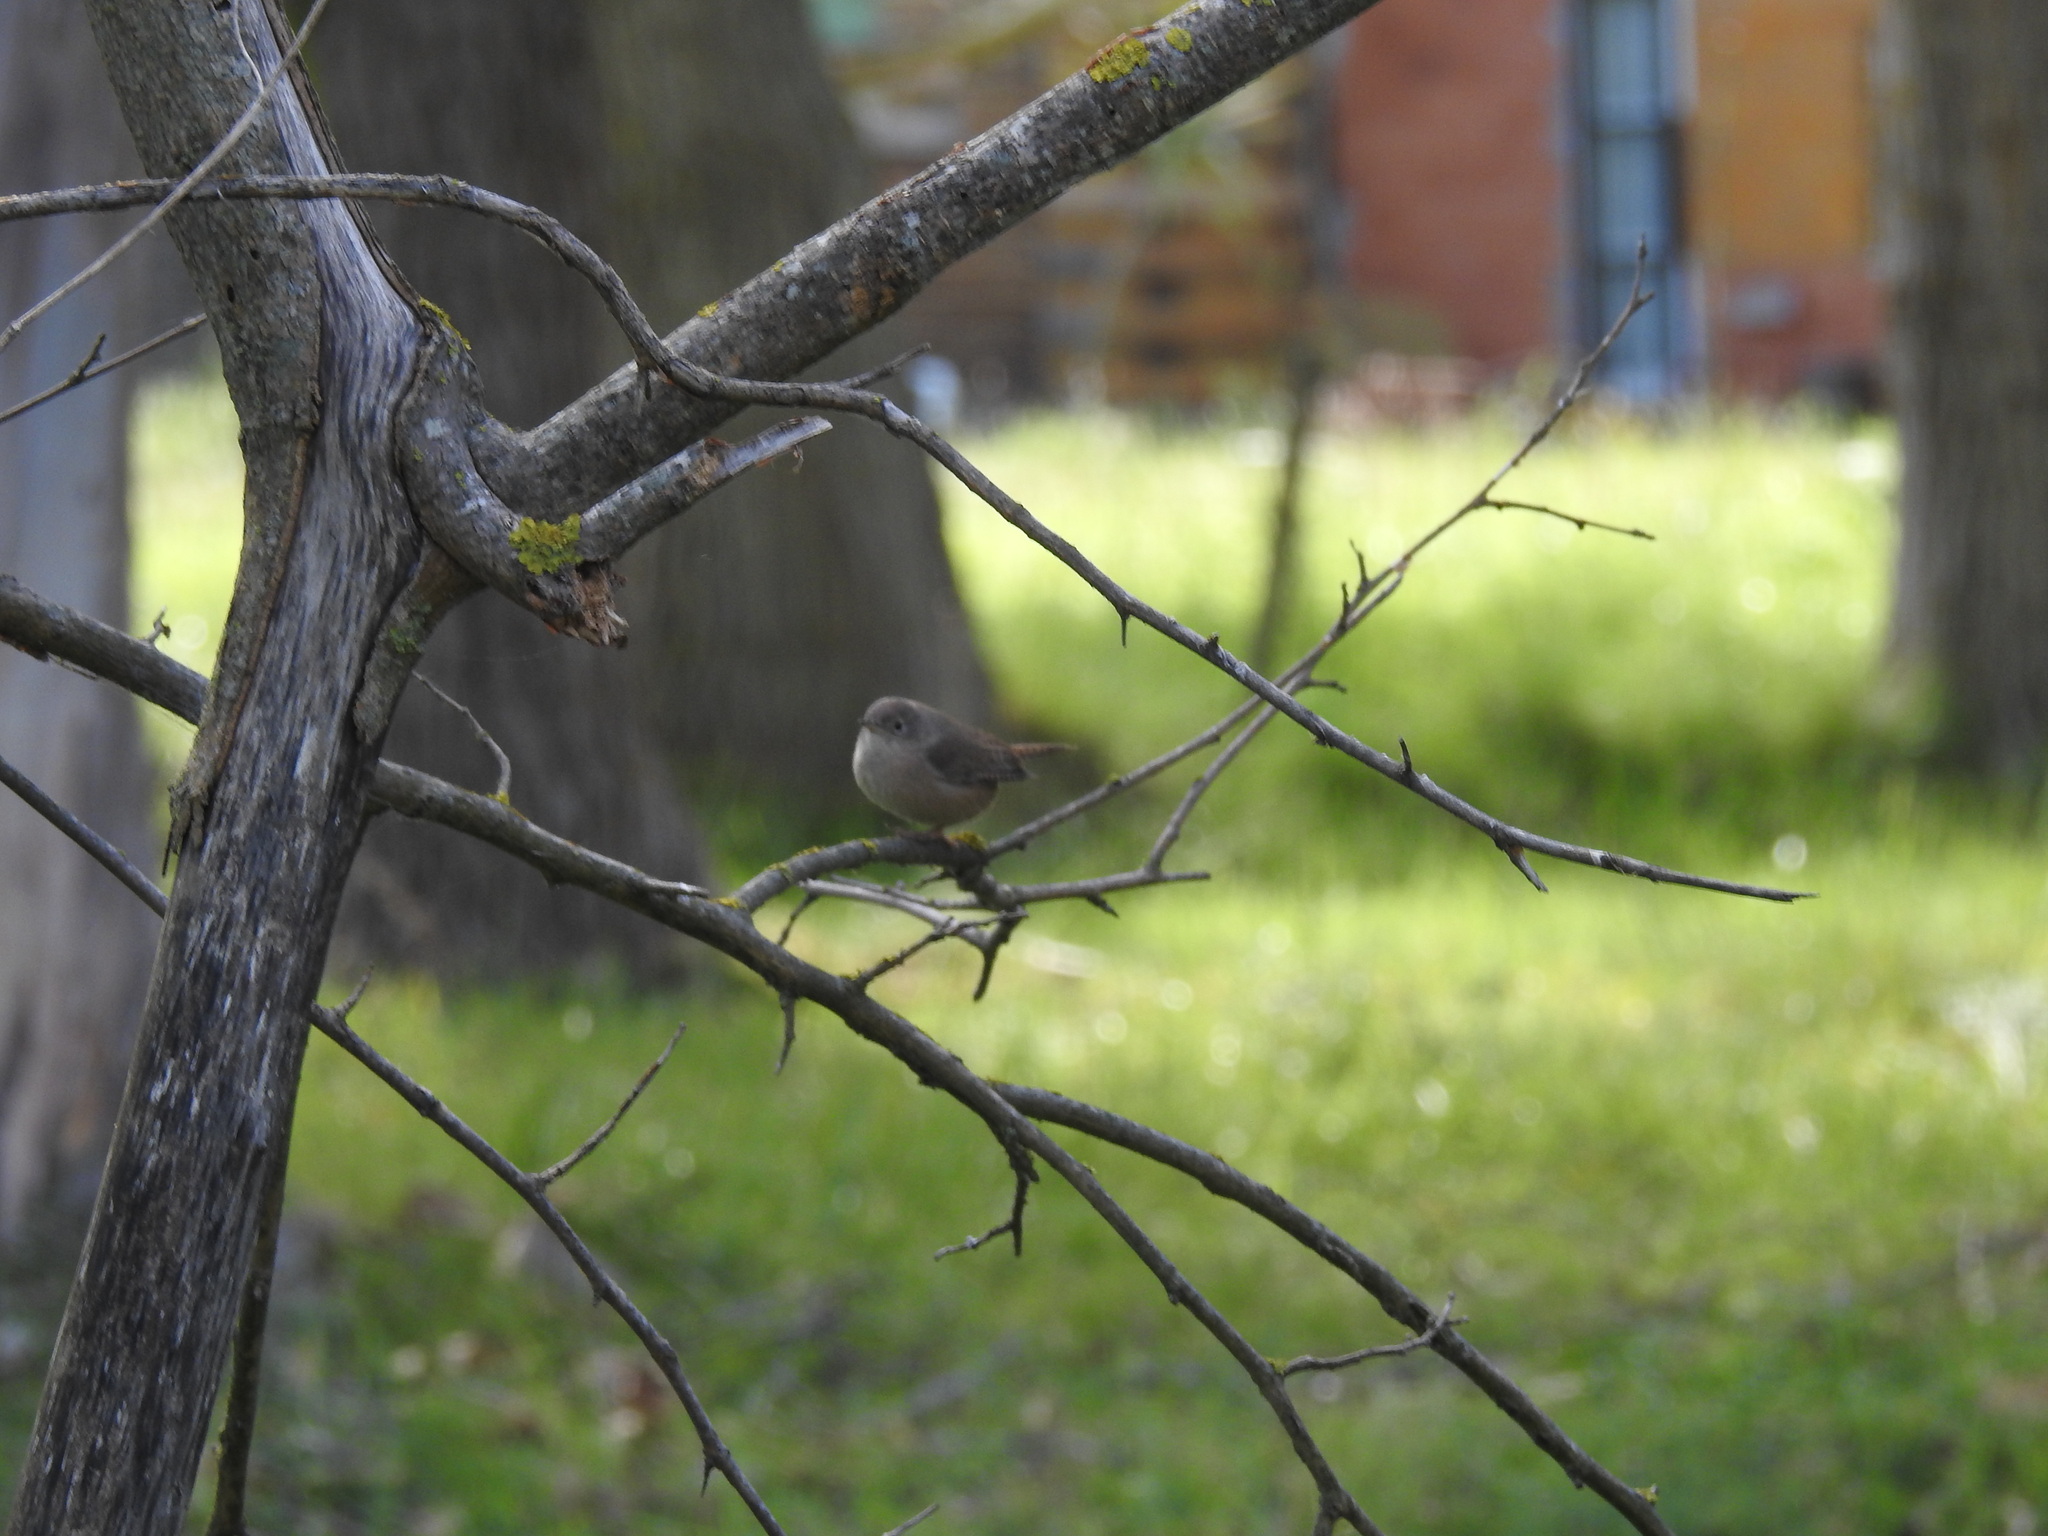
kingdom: Animalia
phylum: Chordata
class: Aves
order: Passeriformes
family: Troglodytidae
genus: Troglodytes
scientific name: Troglodytes aedon
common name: House wren
